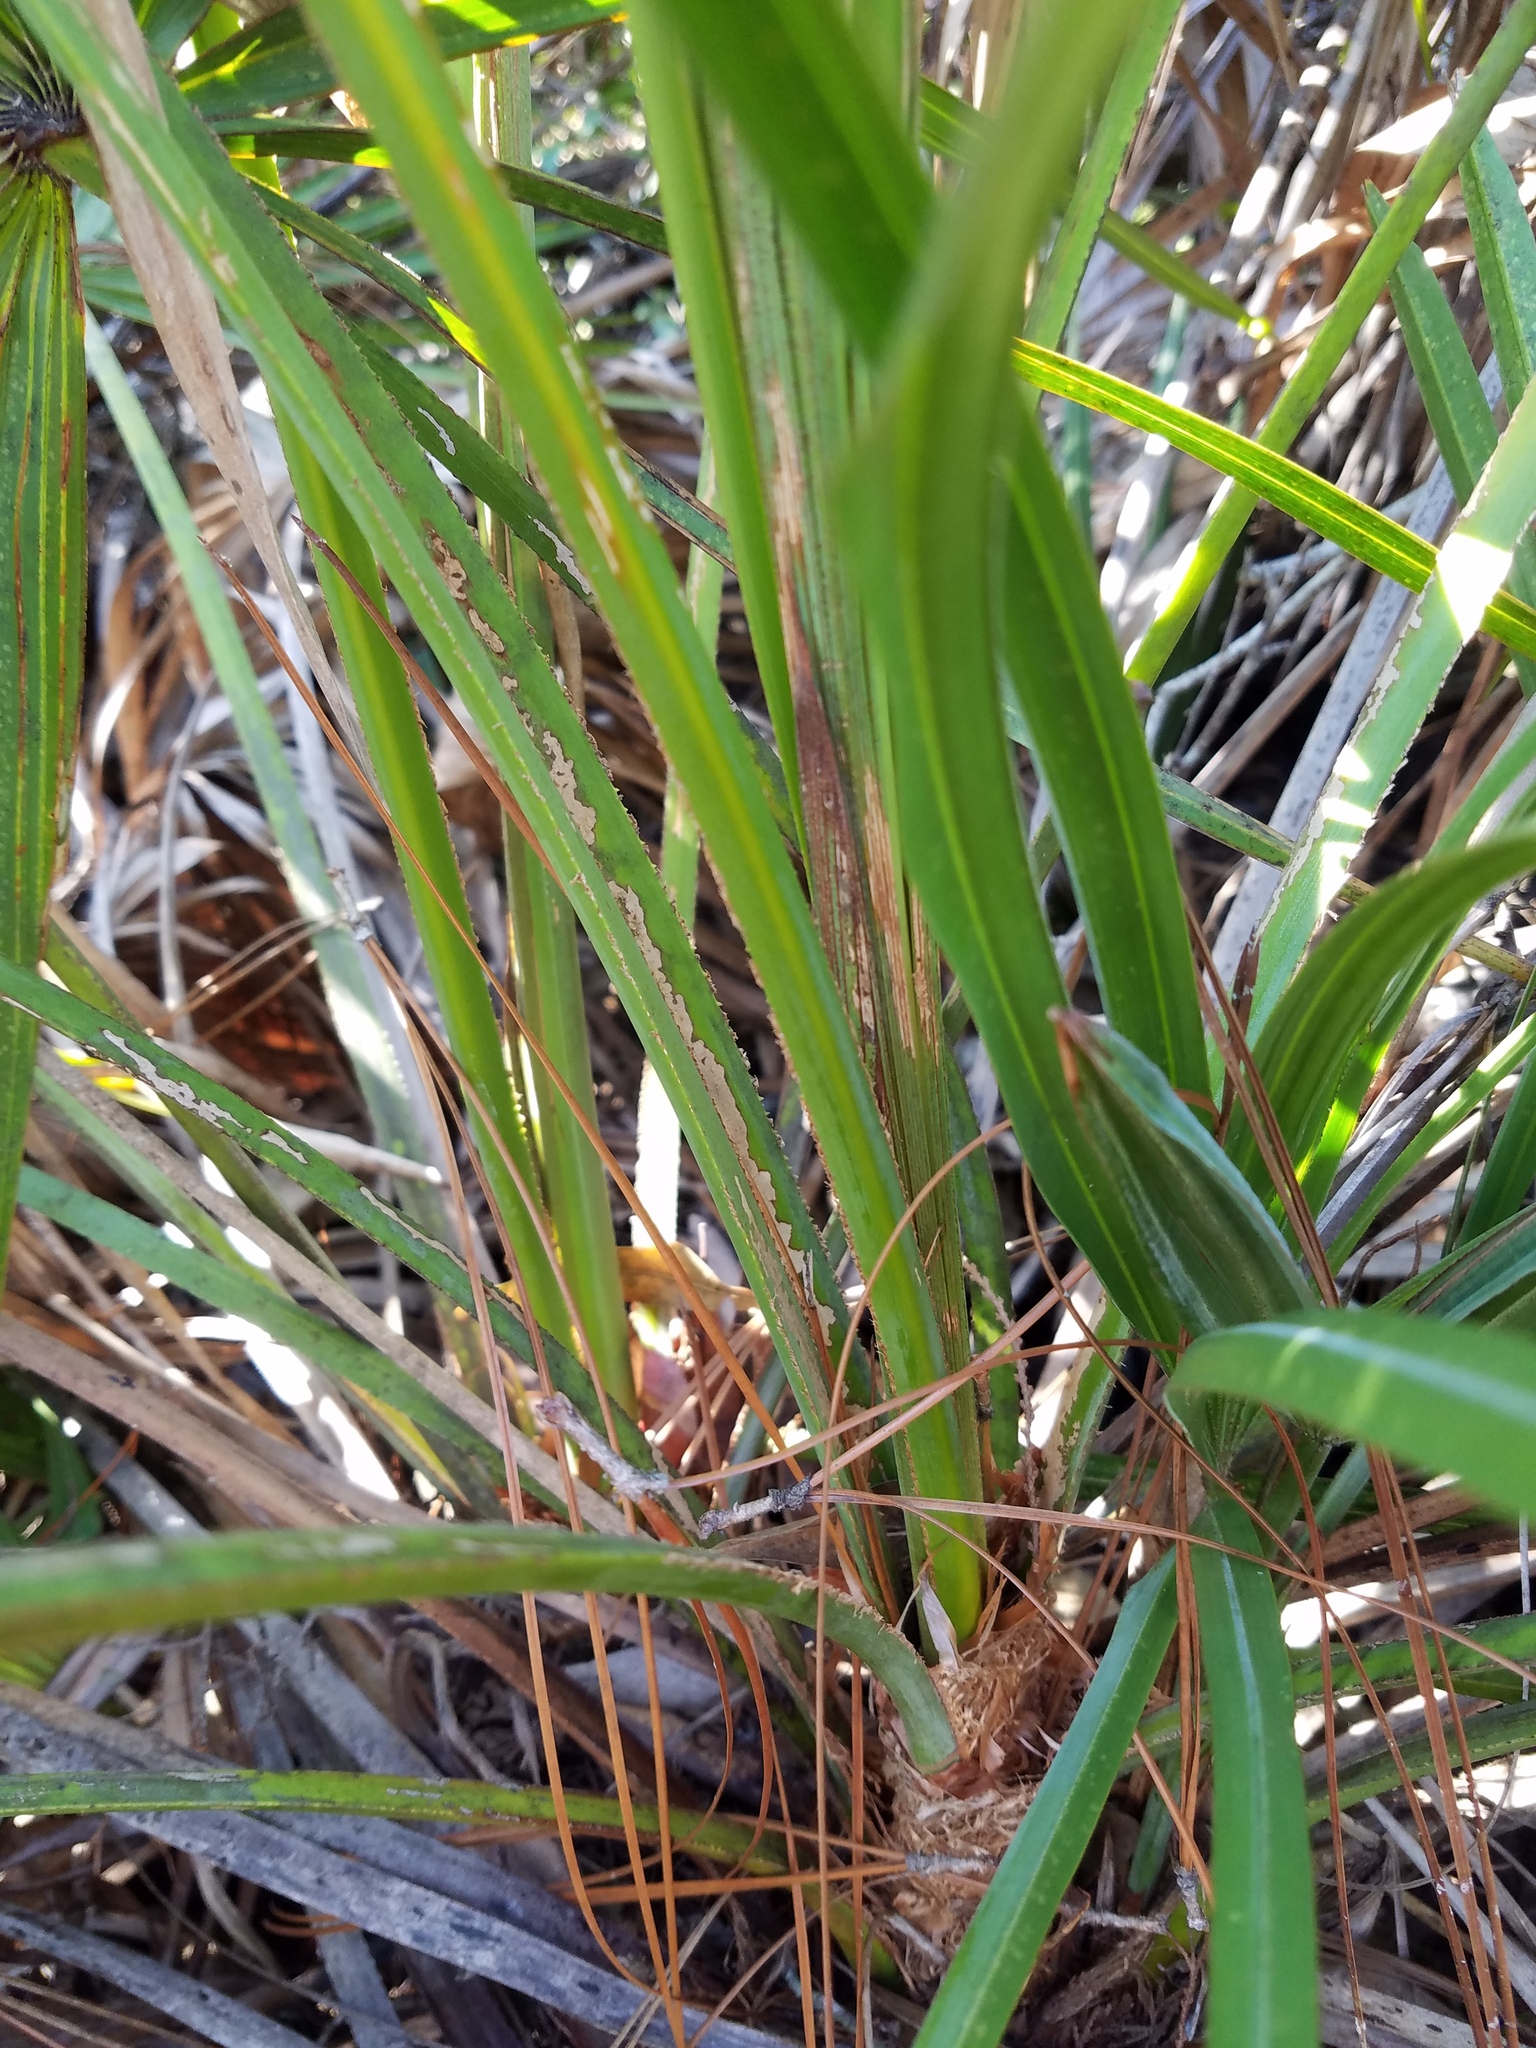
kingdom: Plantae
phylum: Tracheophyta
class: Liliopsida
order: Arecales
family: Arecaceae
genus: Serenoa
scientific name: Serenoa repens
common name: Saw-palmetto
